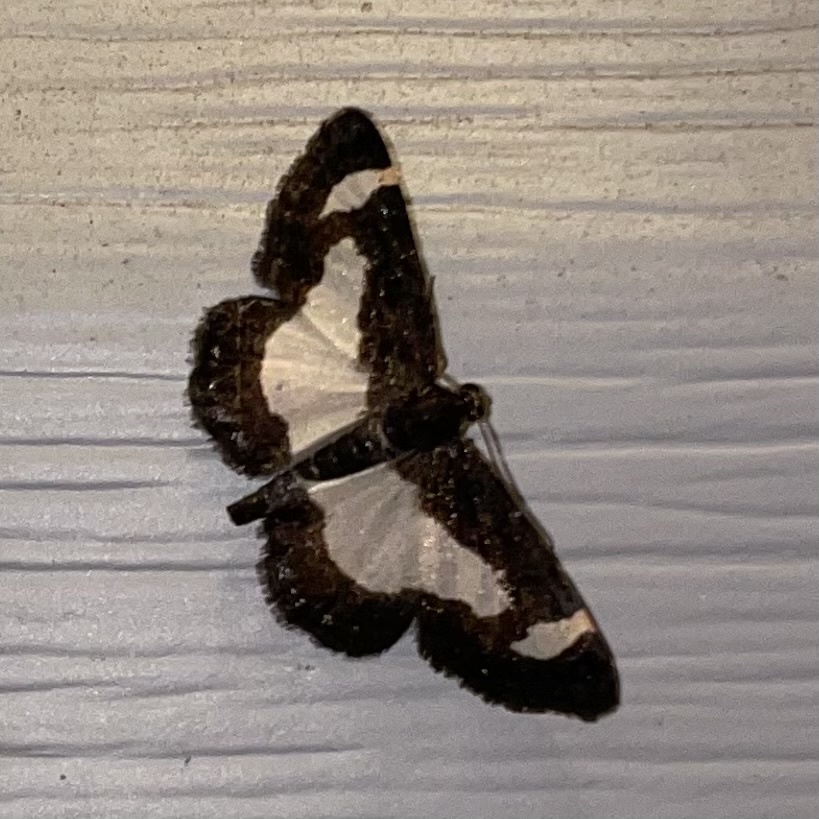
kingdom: Animalia
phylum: Arthropoda
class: Insecta
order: Lepidoptera
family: Geometridae
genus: Heliomata
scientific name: Heliomata cycladata
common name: Common spring moth
